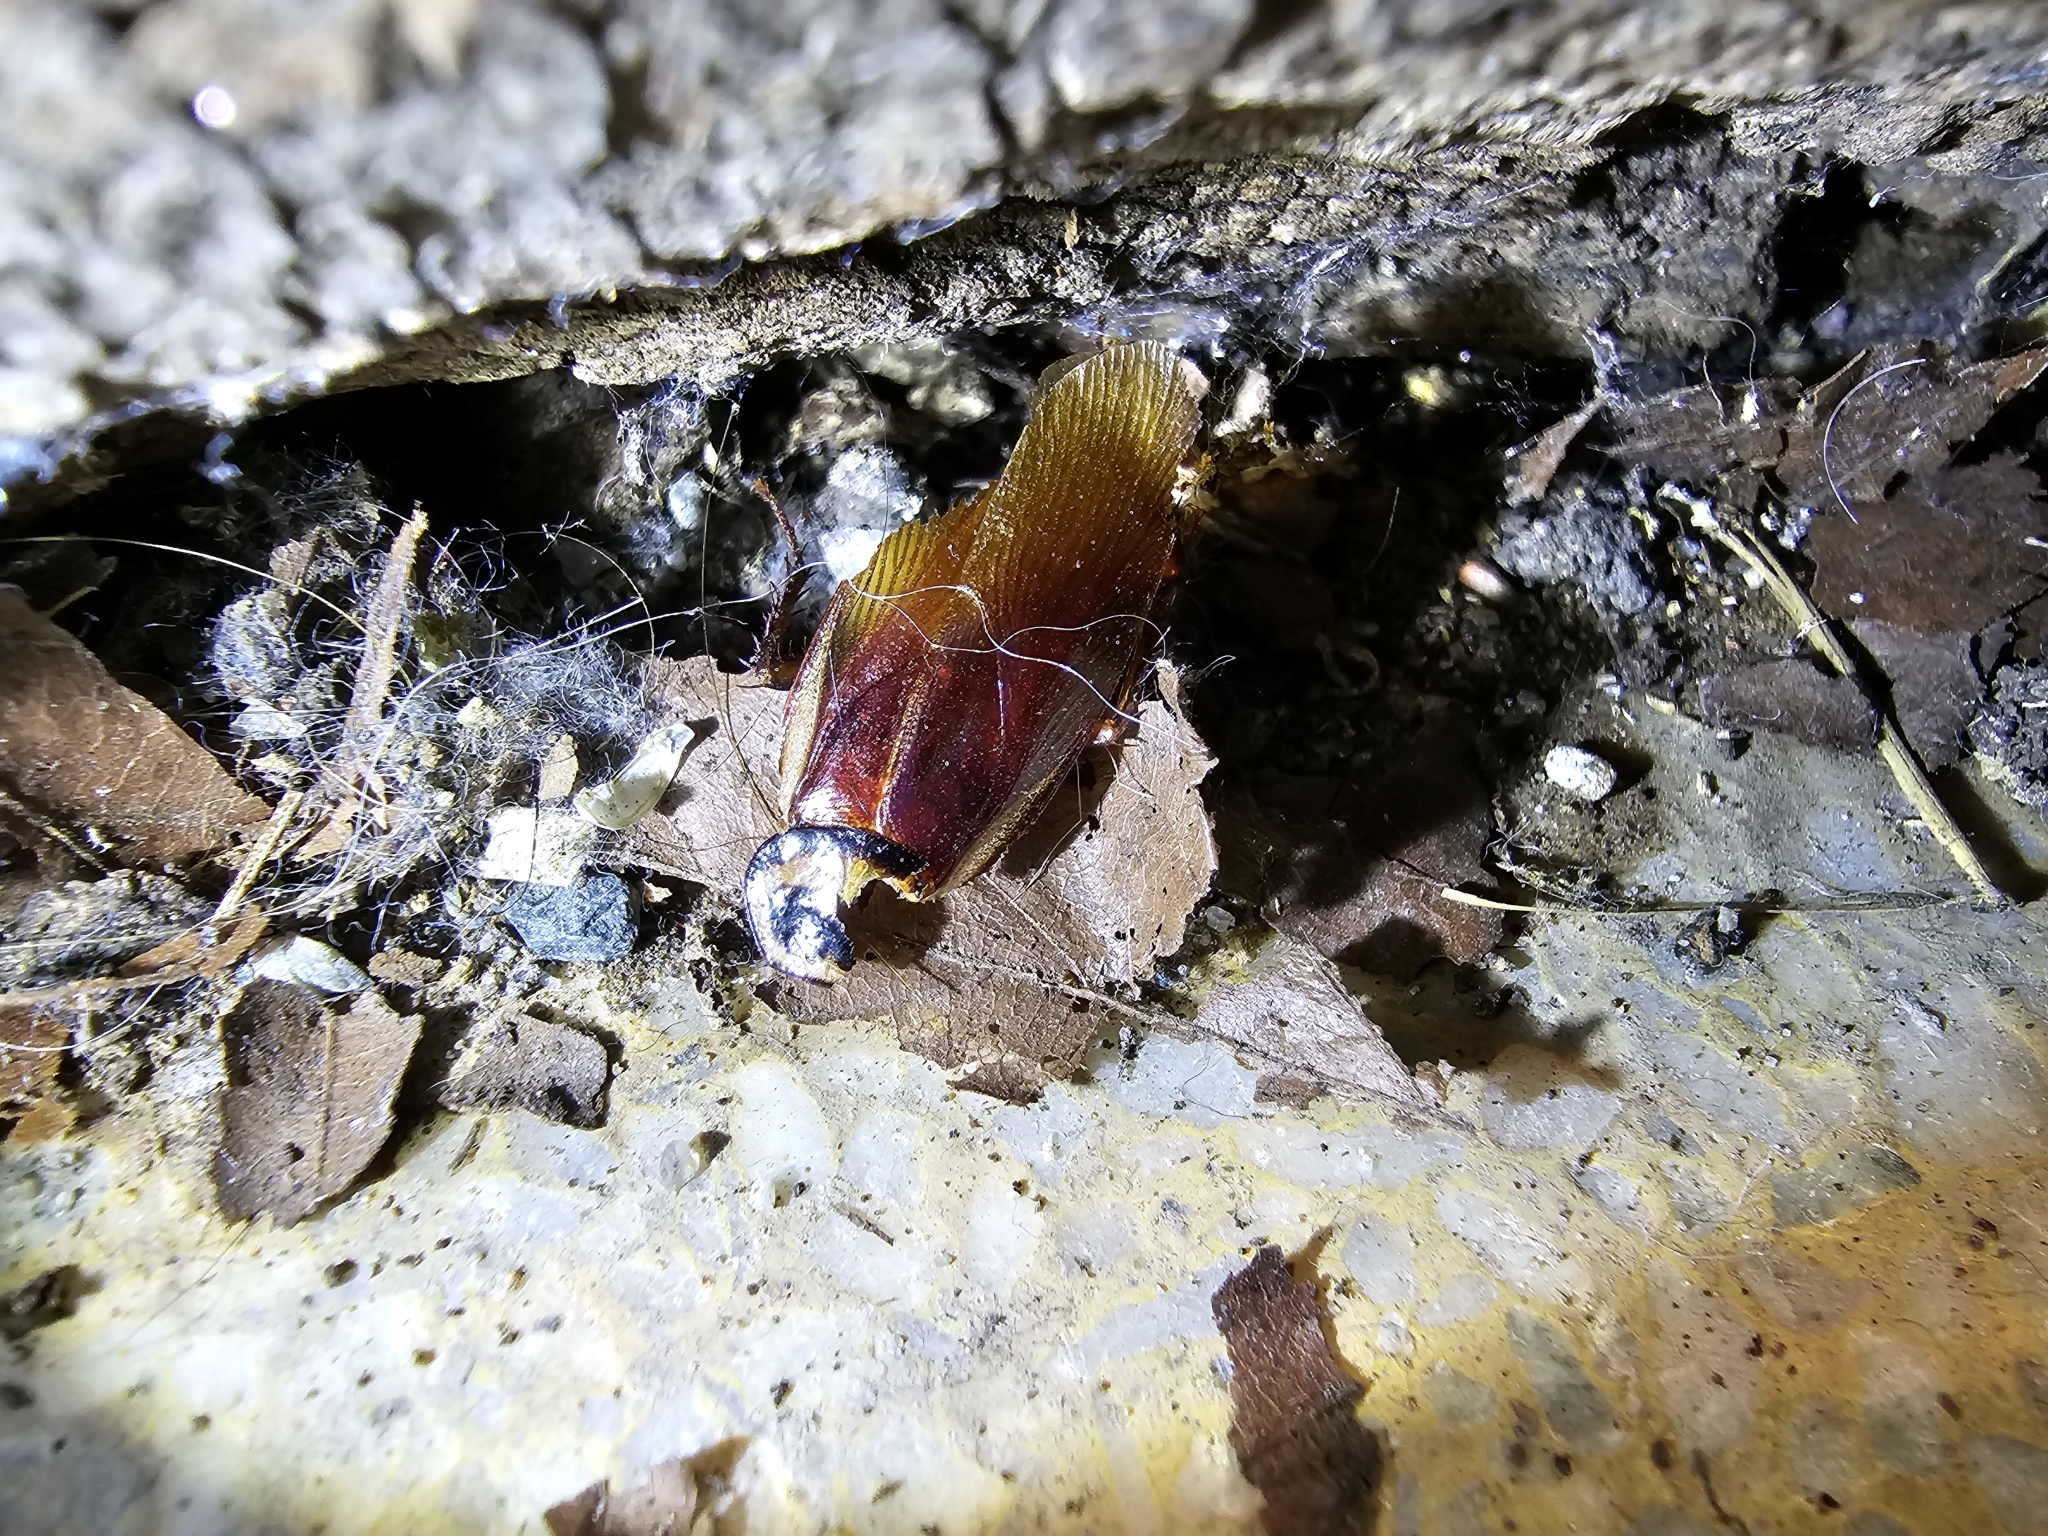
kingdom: Animalia
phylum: Arthropoda
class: Insecta
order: Blattodea
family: Blattidae
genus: Periplaneta
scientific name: Periplaneta australasiae
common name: Australian cockroach
